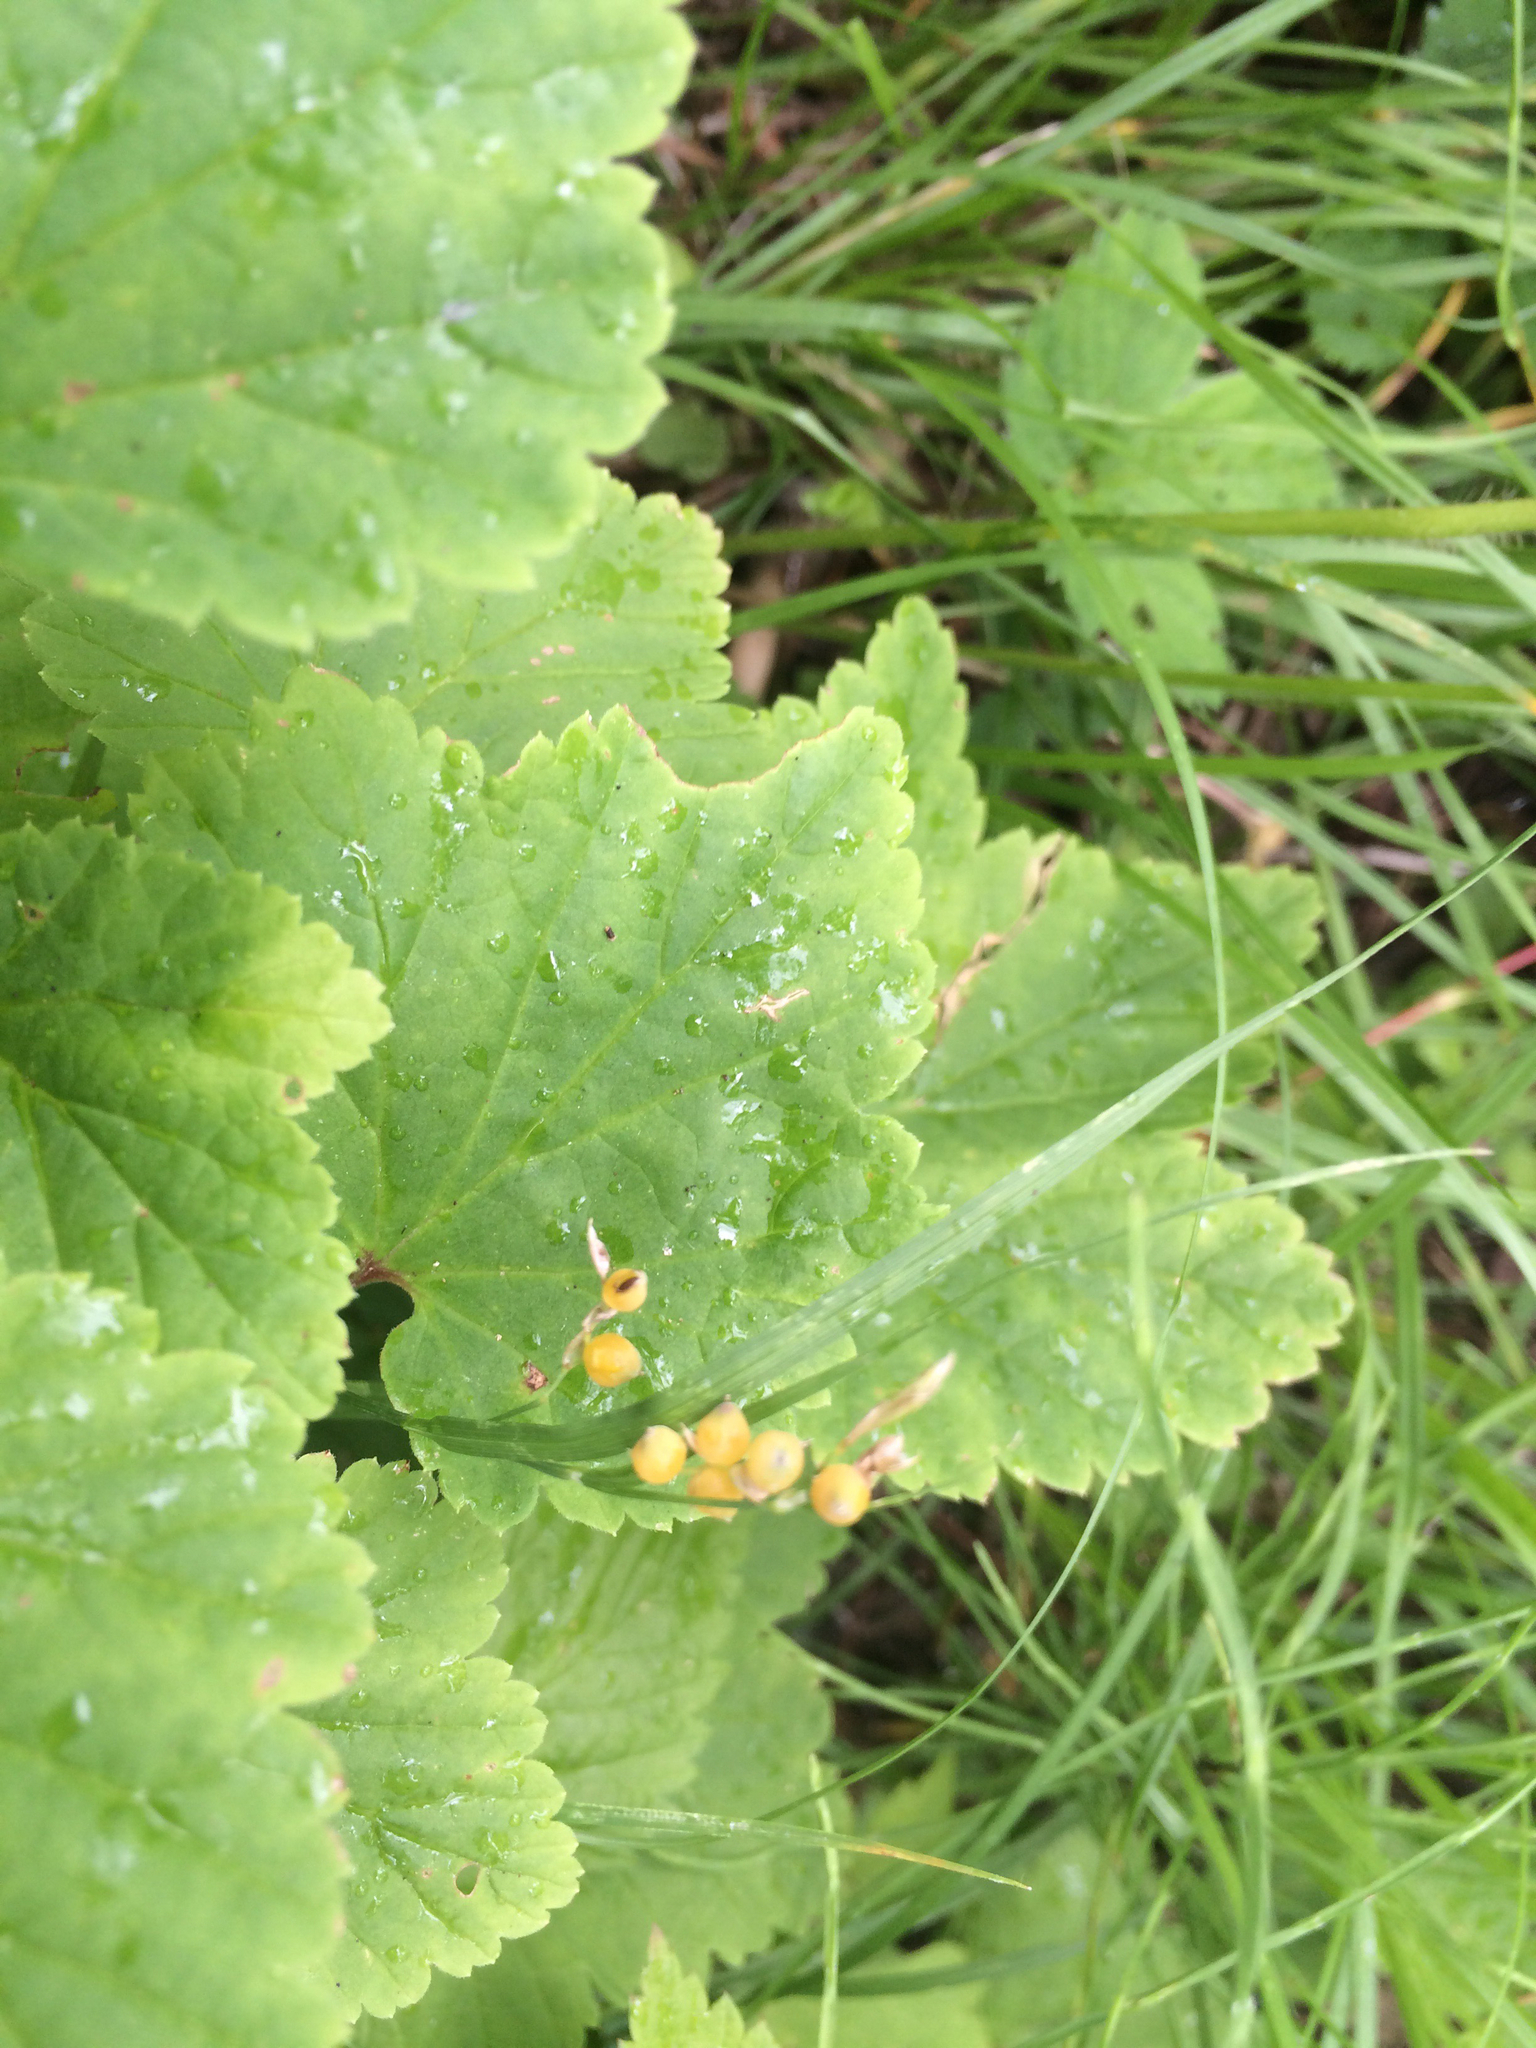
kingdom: Plantae
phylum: Tracheophyta
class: Liliopsida
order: Poales
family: Cyperaceae
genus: Carex
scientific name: Carex aurea
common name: Golden sedge
